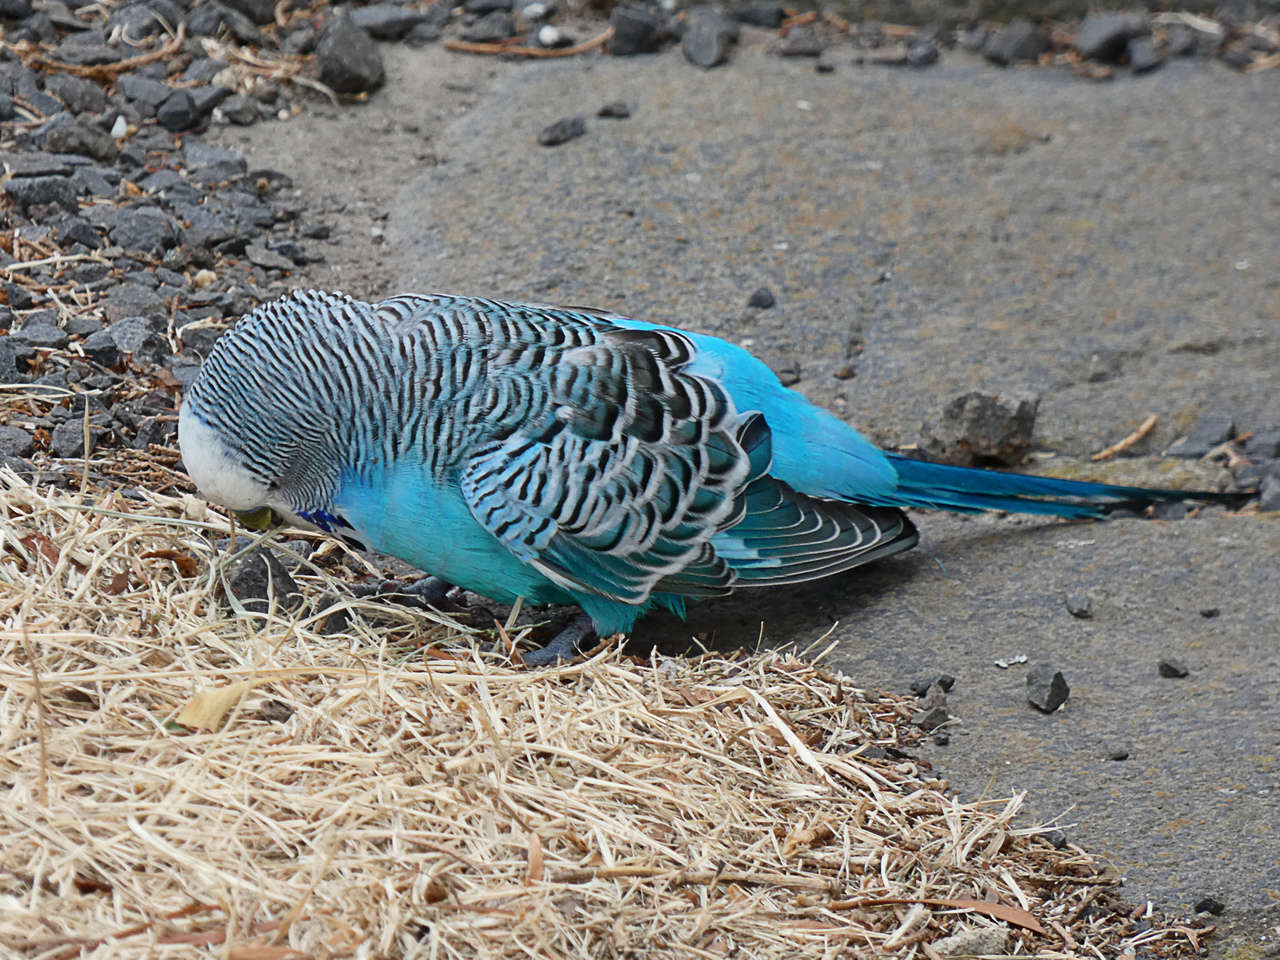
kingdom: Animalia
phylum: Chordata
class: Aves
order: Psittaciformes
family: Psittacidae
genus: Melopsittacus
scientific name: Melopsittacus undulatus
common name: Budgerigar
